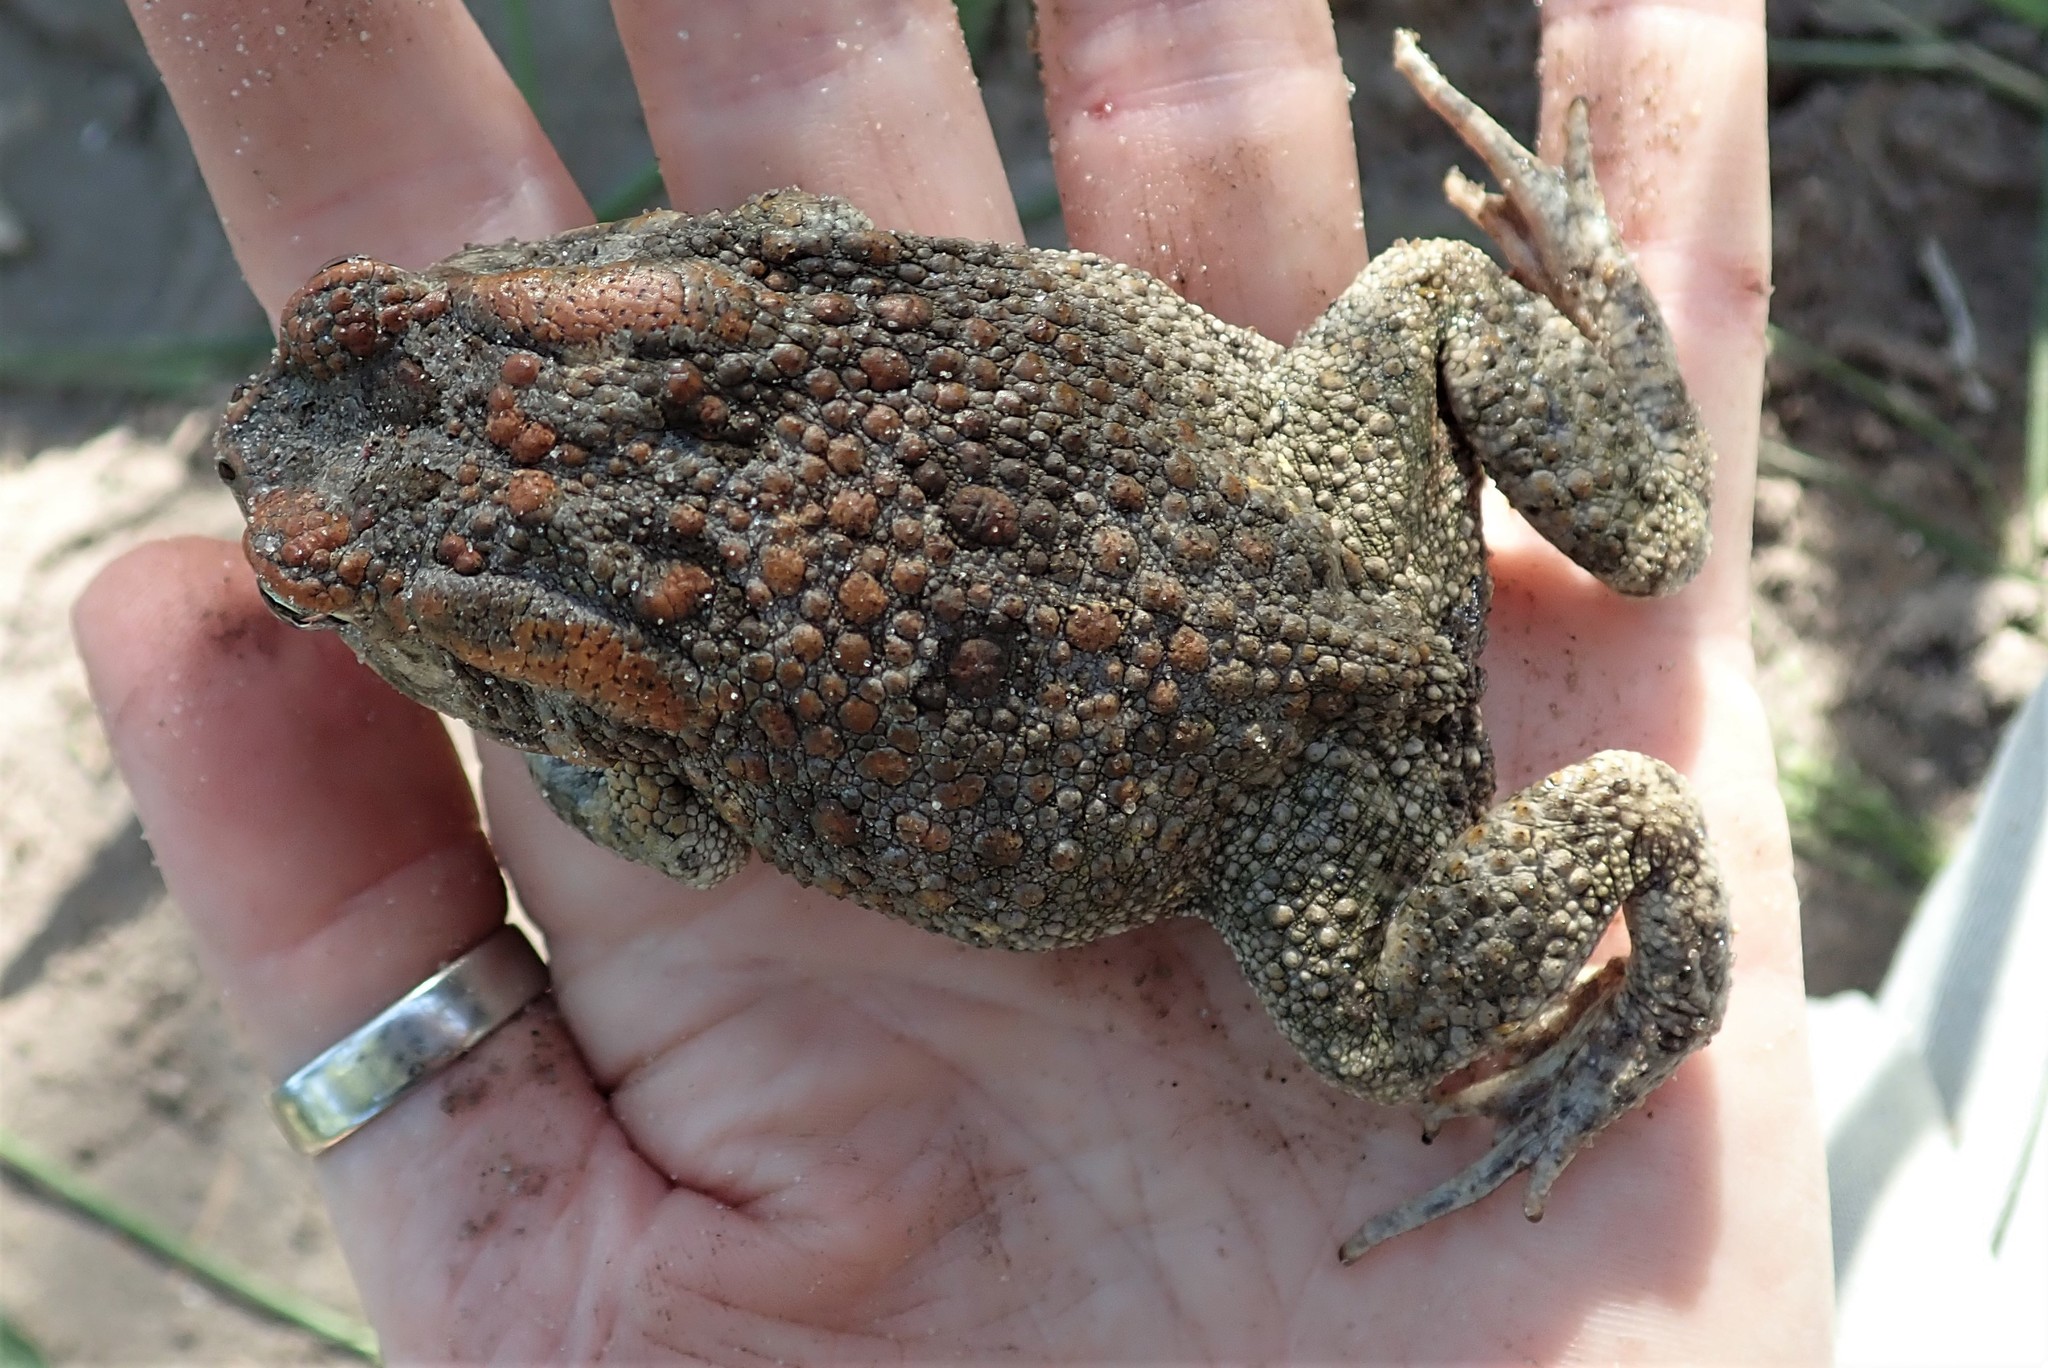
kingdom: Animalia
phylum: Chordata
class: Amphibia
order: Anura
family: Bufonidae
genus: Sclerophrys
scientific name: Sclerophrys gutturalis
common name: African common toad
